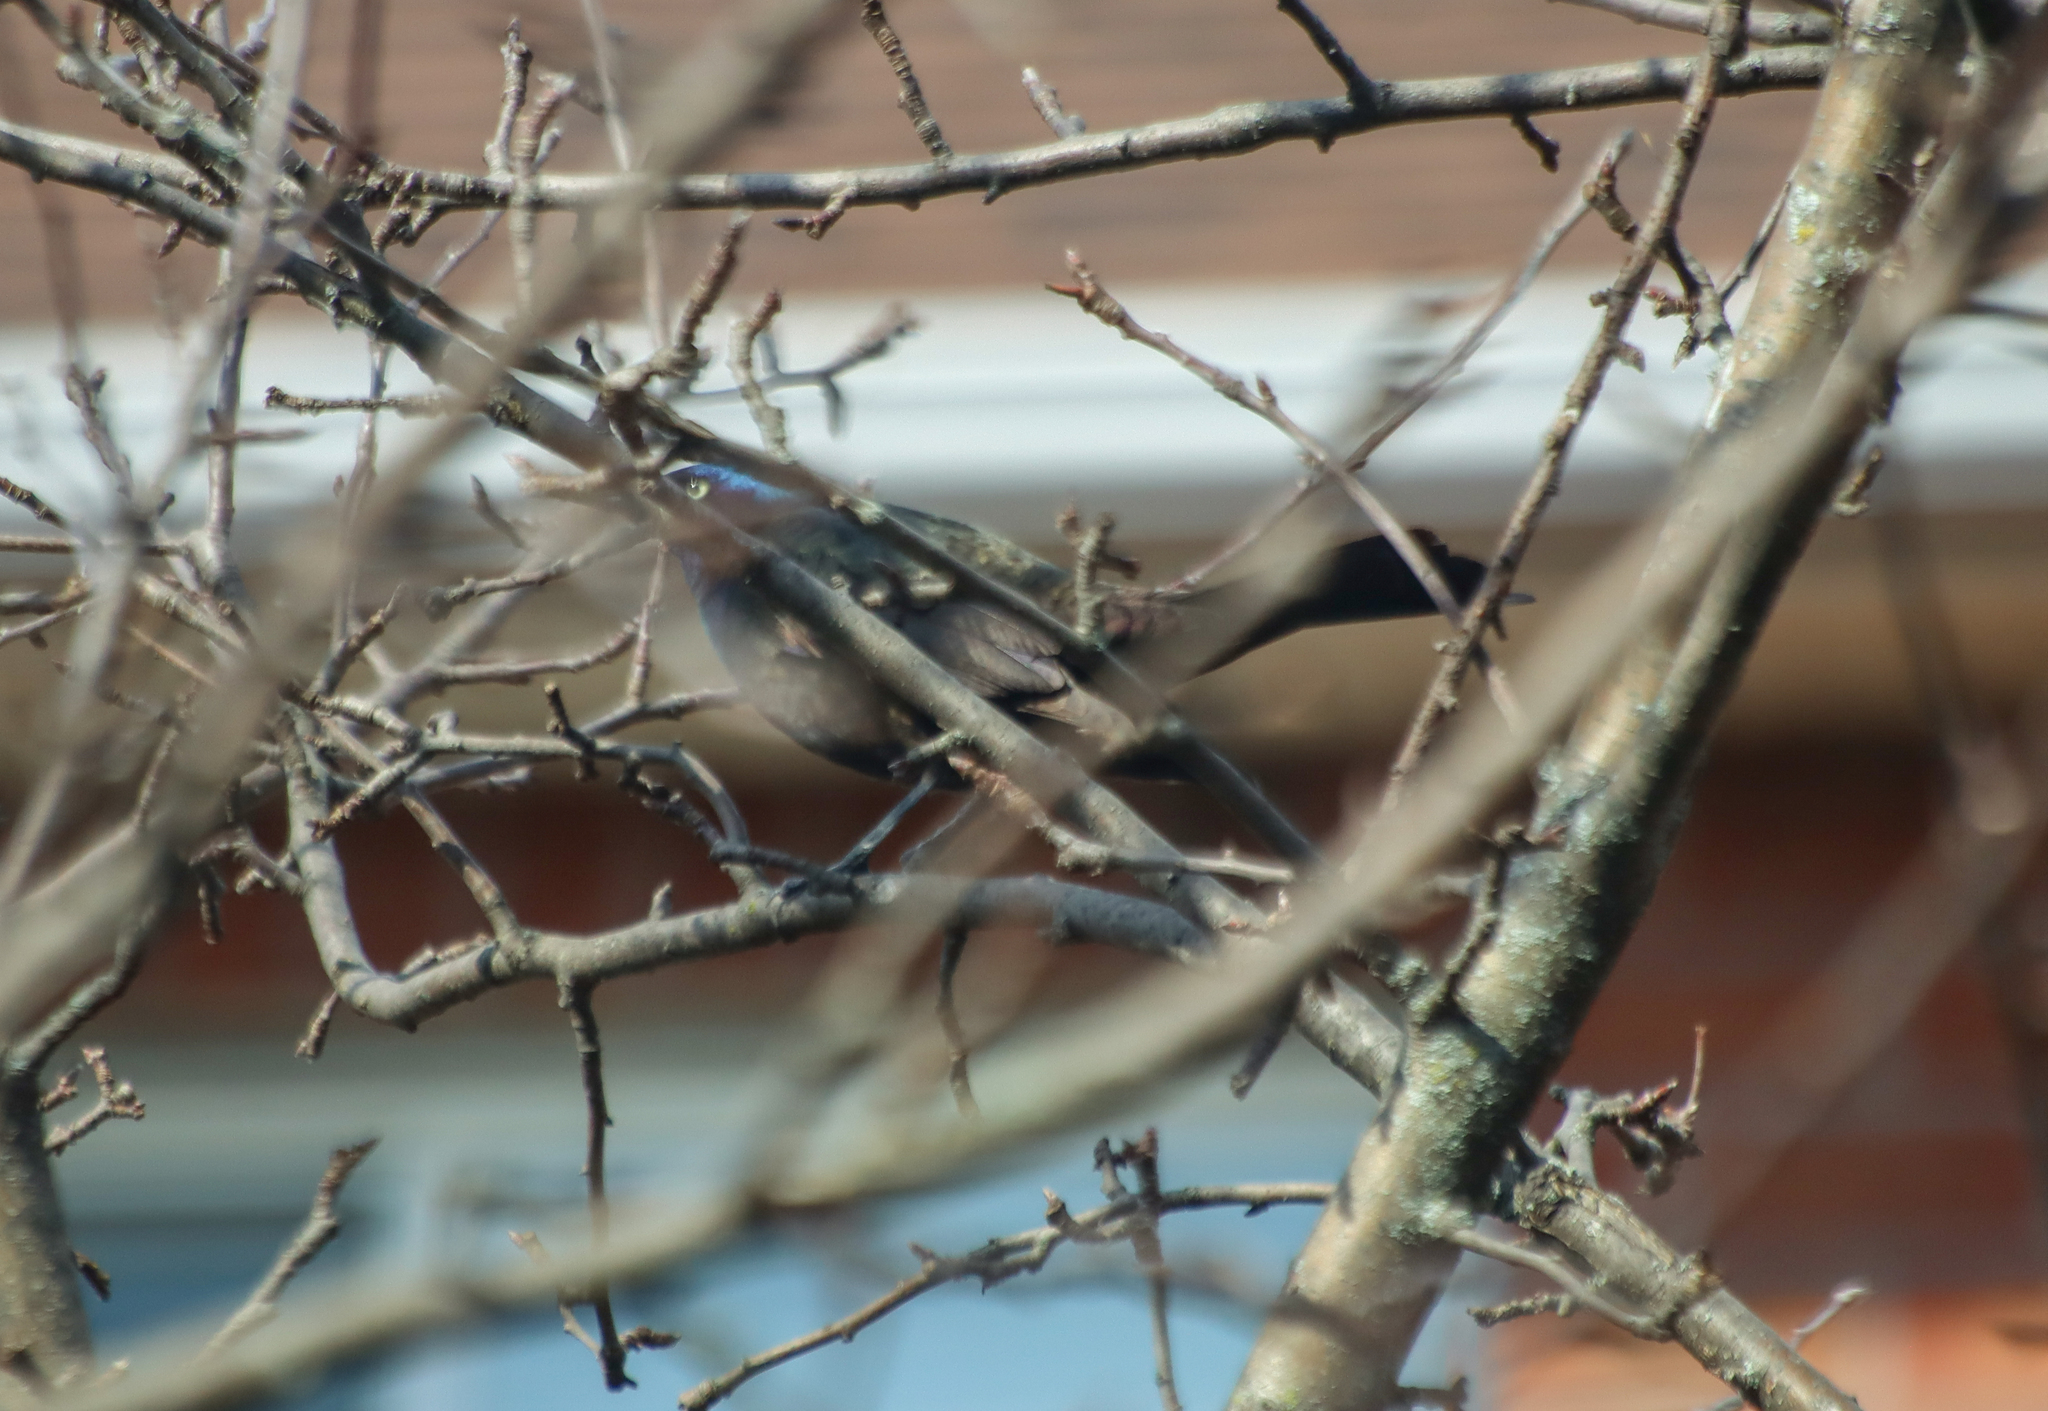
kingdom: Animalia
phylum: Chordata
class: Aves
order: Passeriformes
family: Icteridae
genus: Quiscalus
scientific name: Quiscalus quiscula
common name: Common grackle
